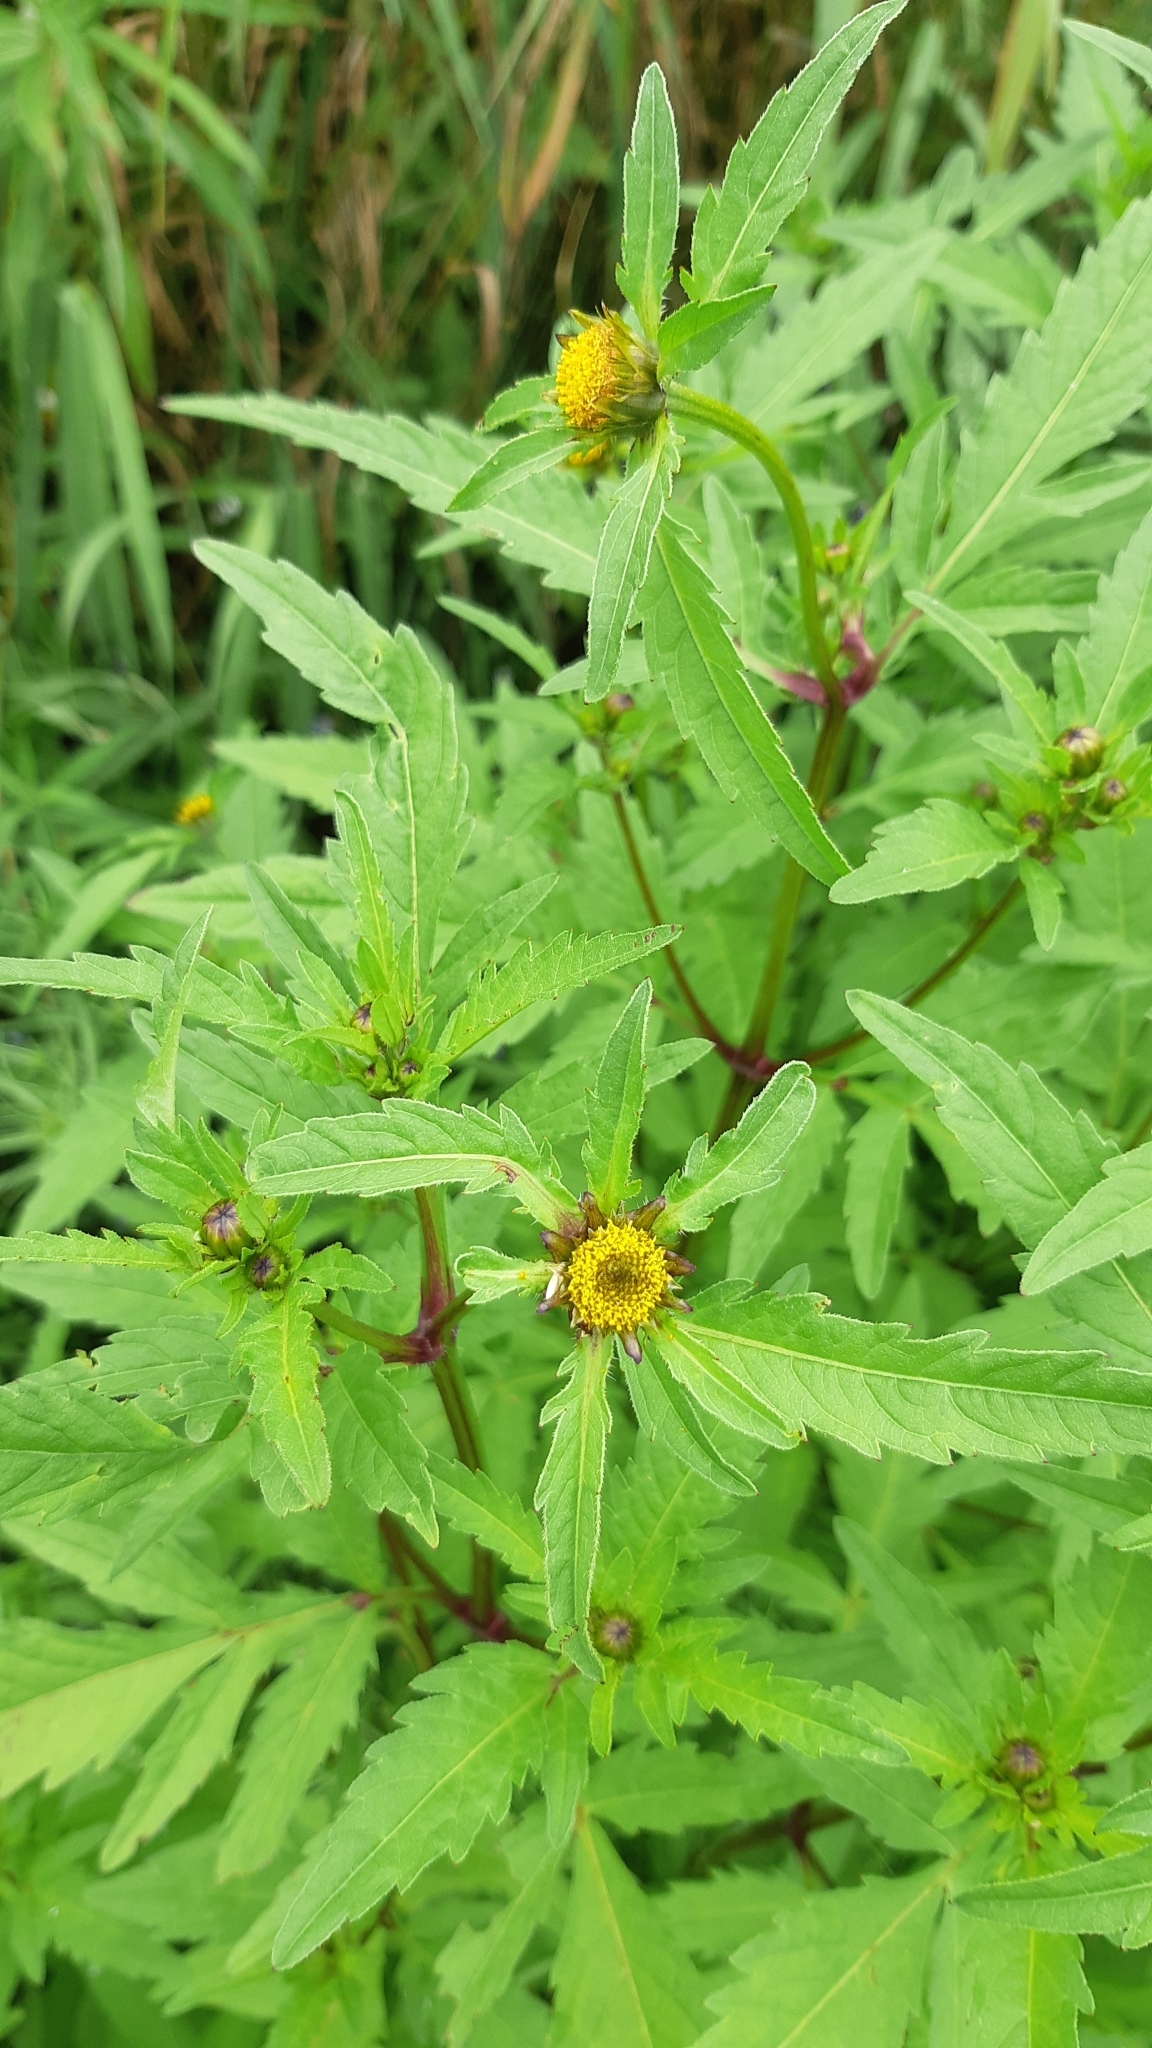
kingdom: Plantae
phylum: Tracheophyta
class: Magnoliopsida
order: Asterales
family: Asteraceae
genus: Bidens
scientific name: Bidens tripartita
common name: Trifid bur-marigold
